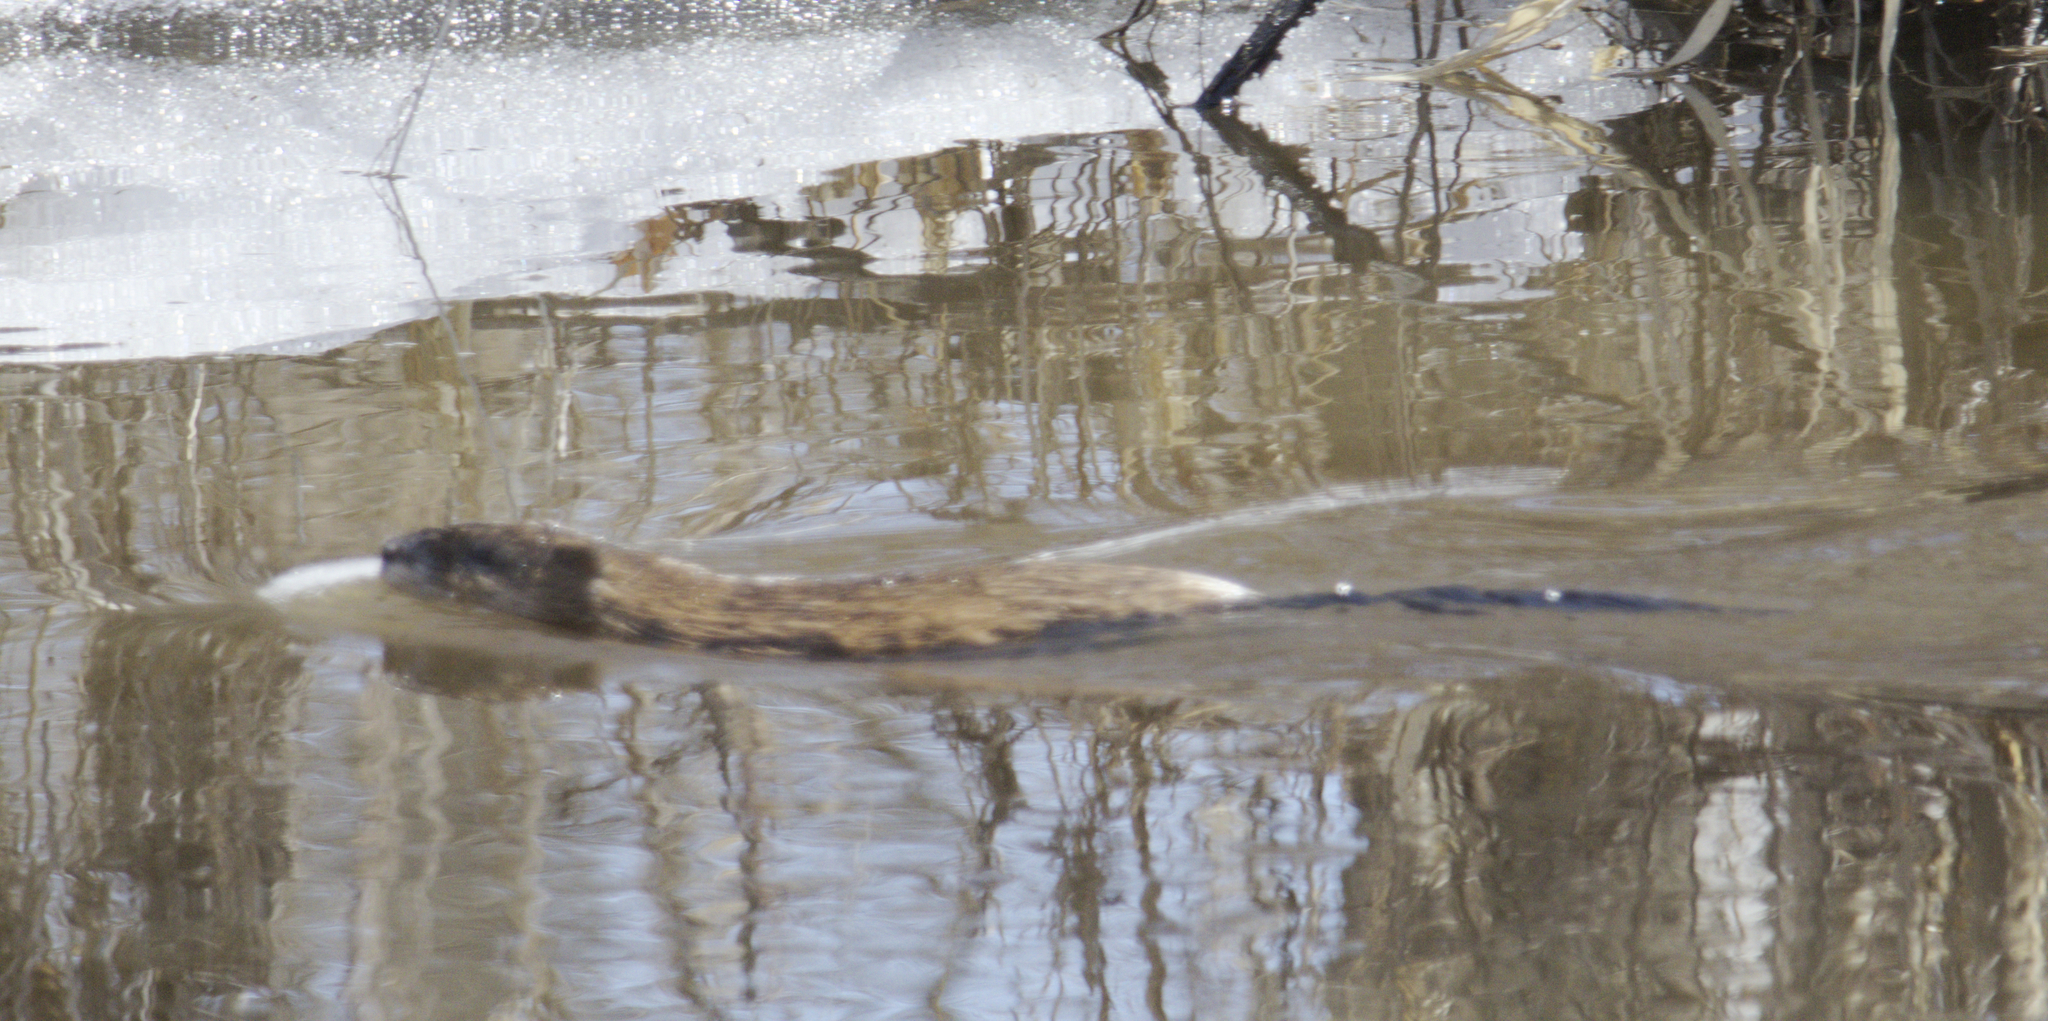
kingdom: Animalia
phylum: Chordata
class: Mammalia
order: Rodentia
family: Cricetidae
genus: Ondatra
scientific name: Ondatra zibethicus
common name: Muskrat
